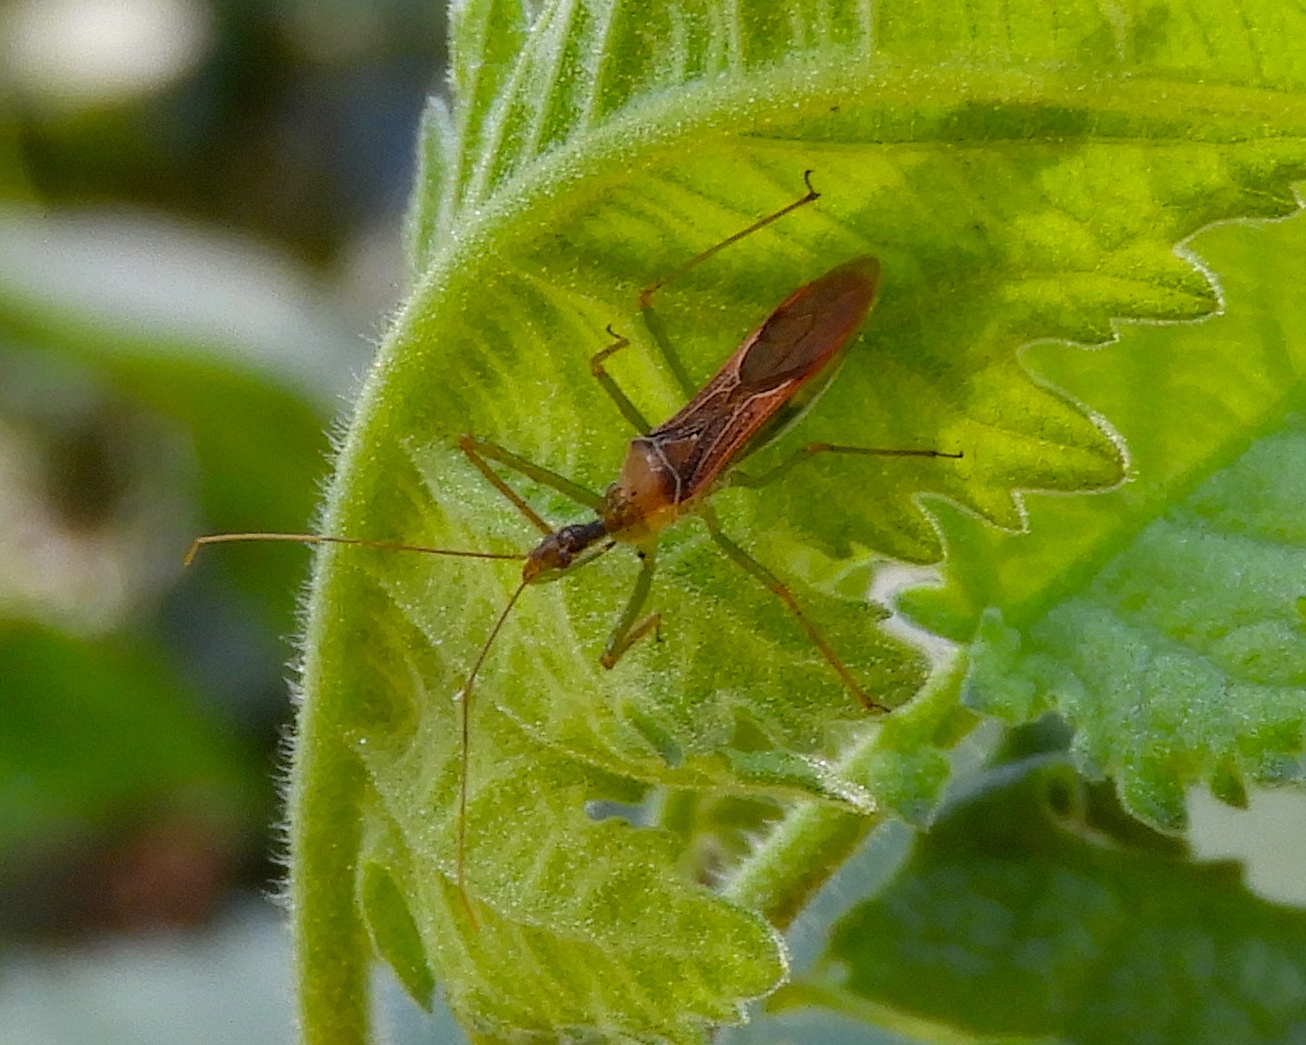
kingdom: Animalia
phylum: Arthropoda
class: Insecta
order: Hemiptera
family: Reduviidae
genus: Zelus
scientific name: Zelus
